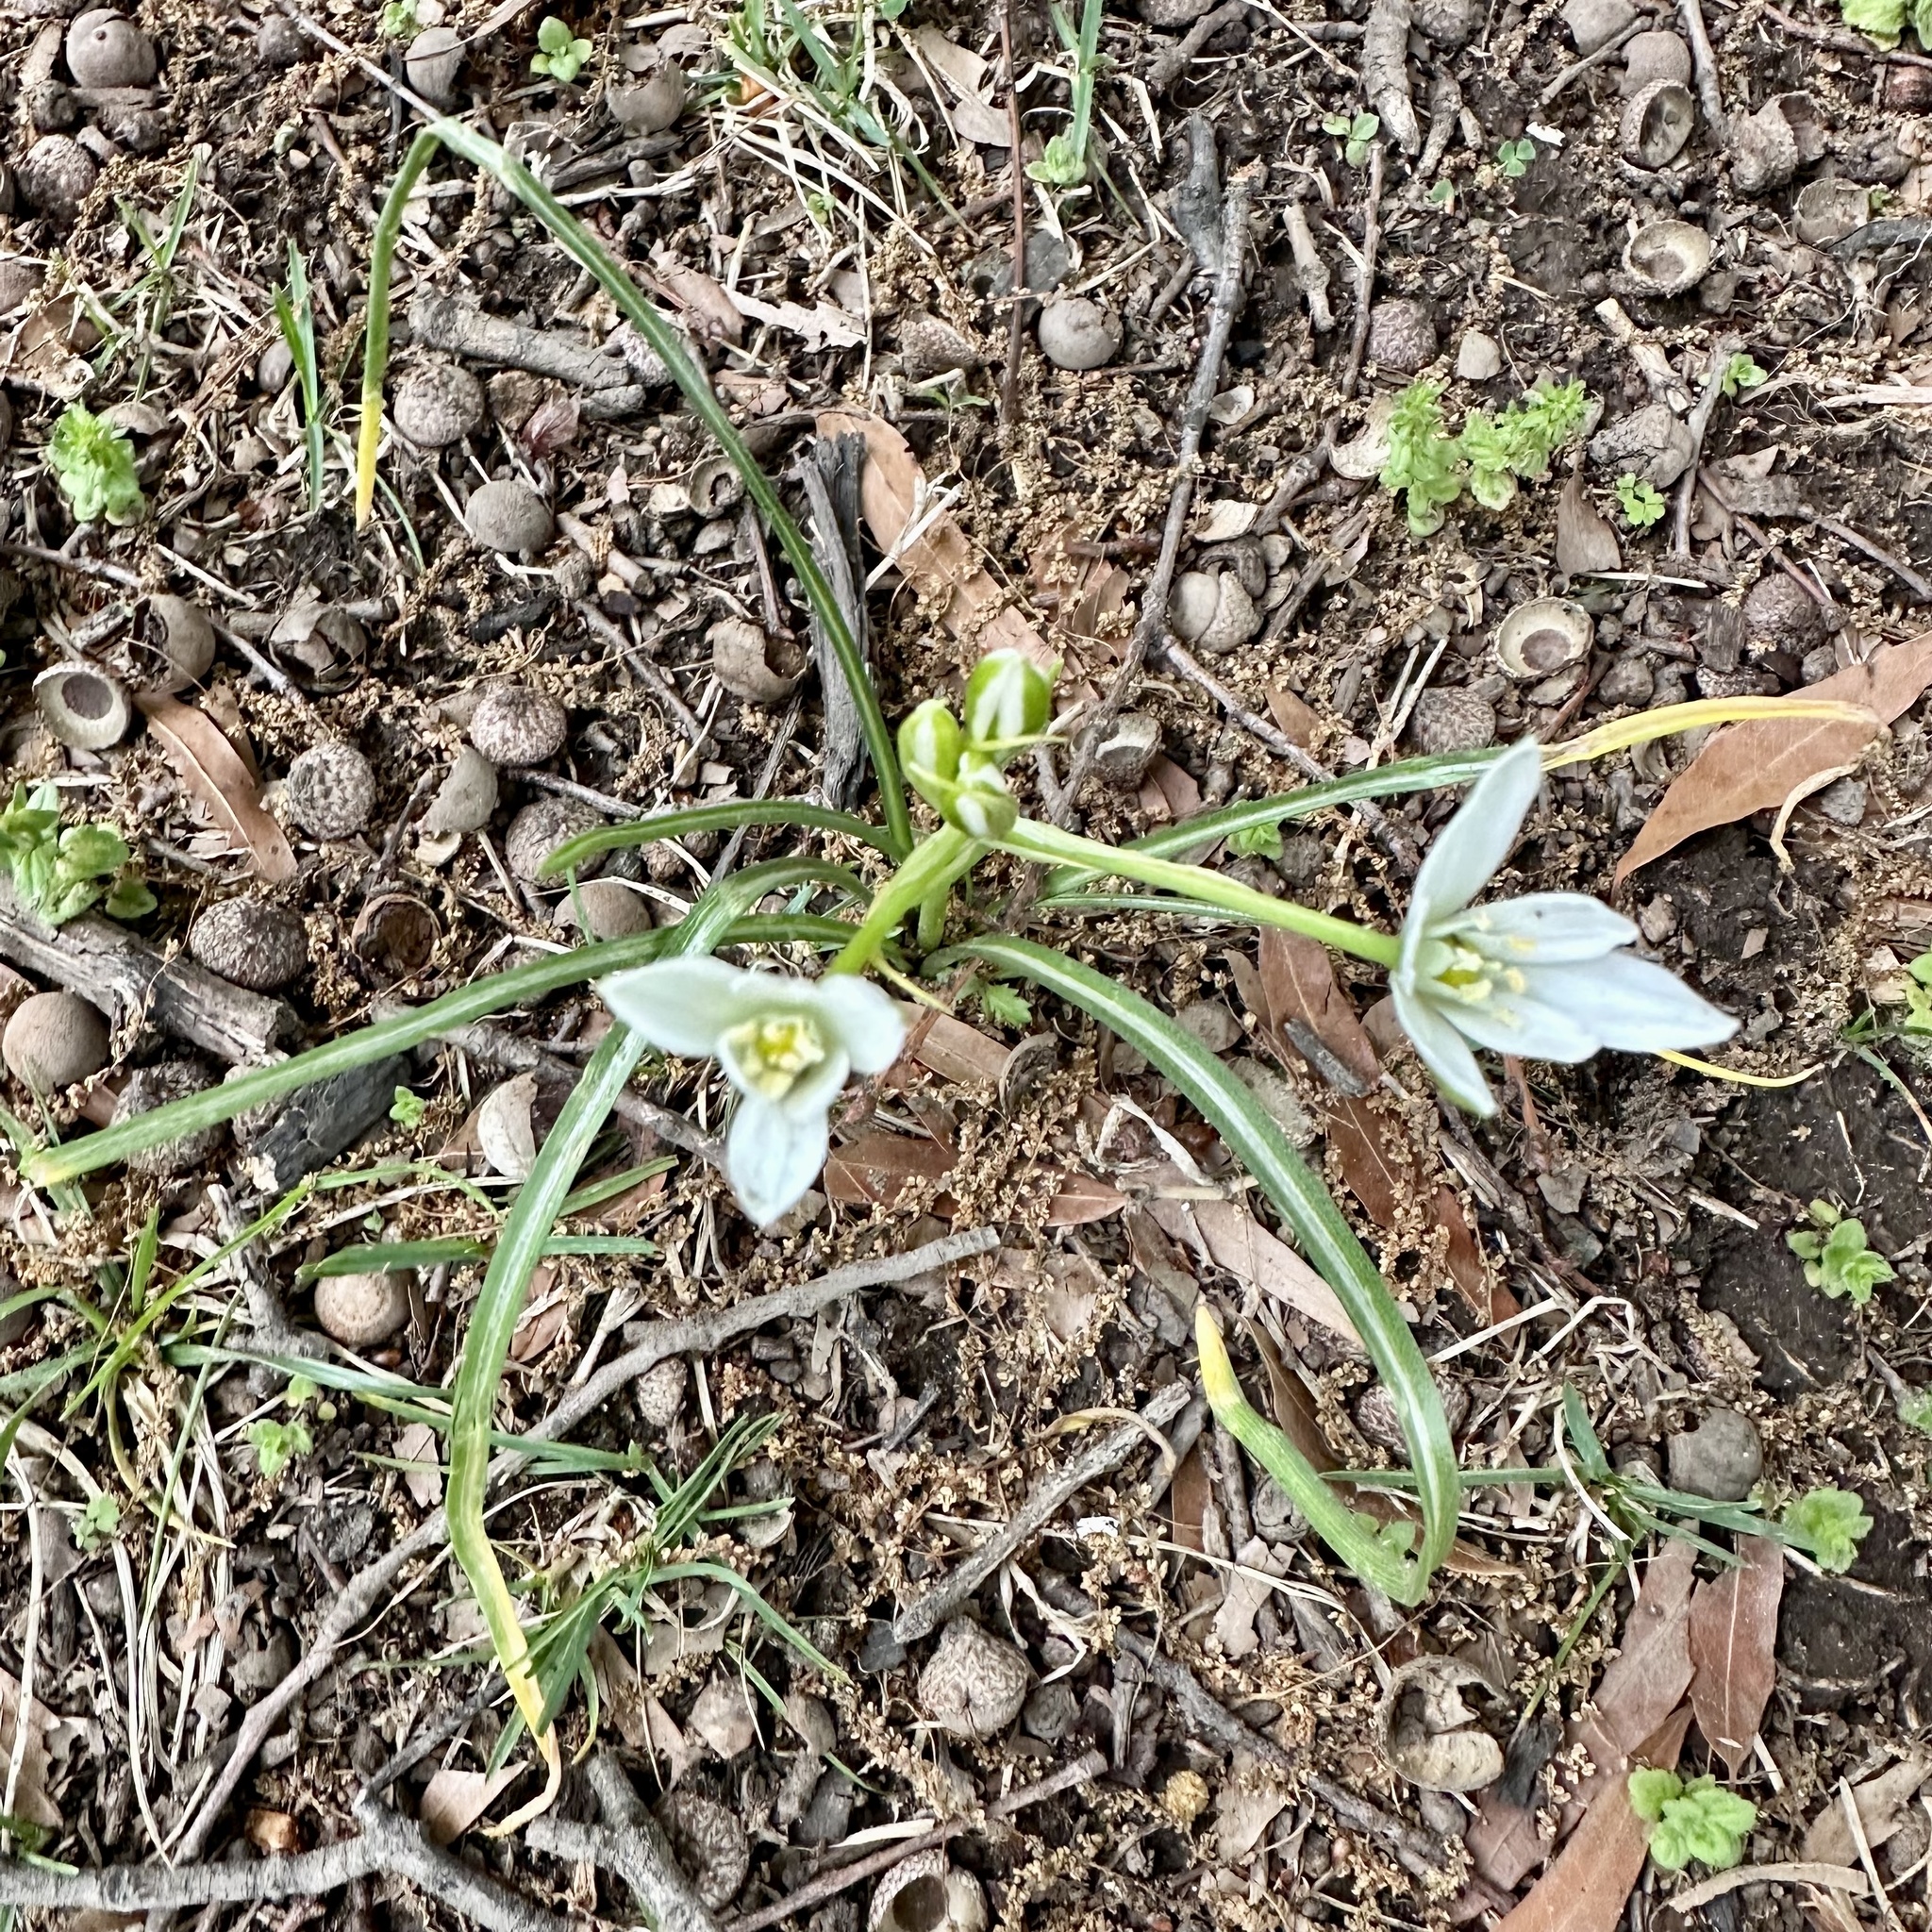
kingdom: Plantae
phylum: Tracheophyta
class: Liliopsida
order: Asparagales
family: Asparagaceae
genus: Ornithogalum
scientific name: Ornithogalum umbellatum
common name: Garden star-of-bethlehem
